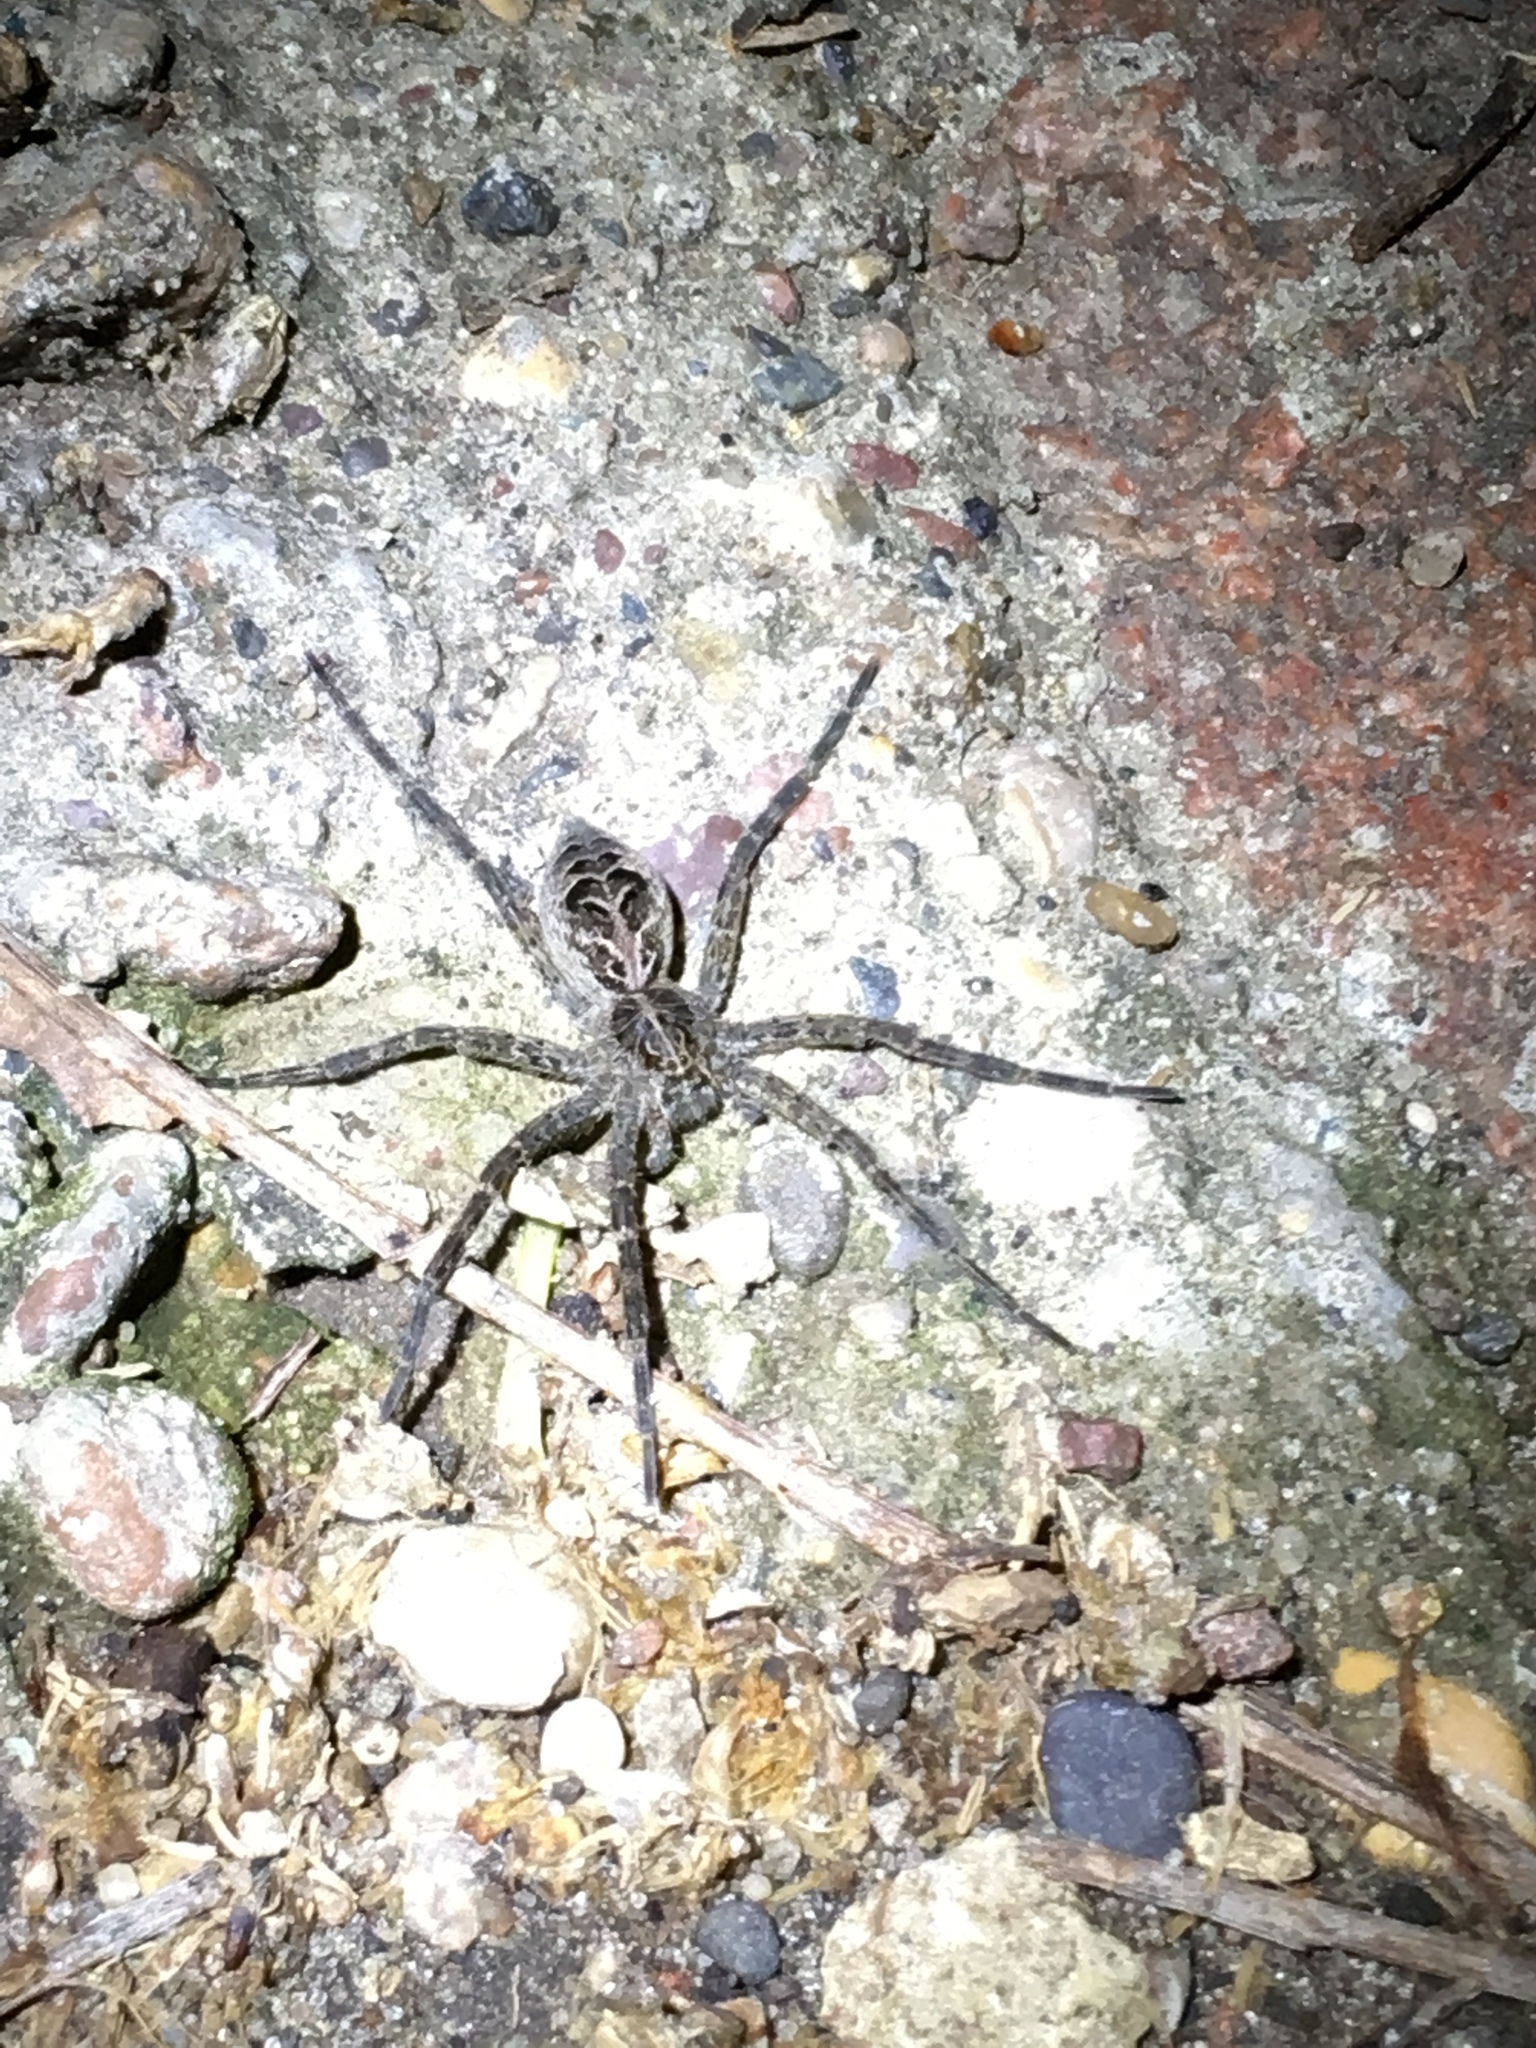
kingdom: Animalia
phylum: Arthropoda
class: Arachnida
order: Araneae
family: Pisauridae
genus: Dolomedes
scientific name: Dolomedes scriptus
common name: Striped fishing spider
